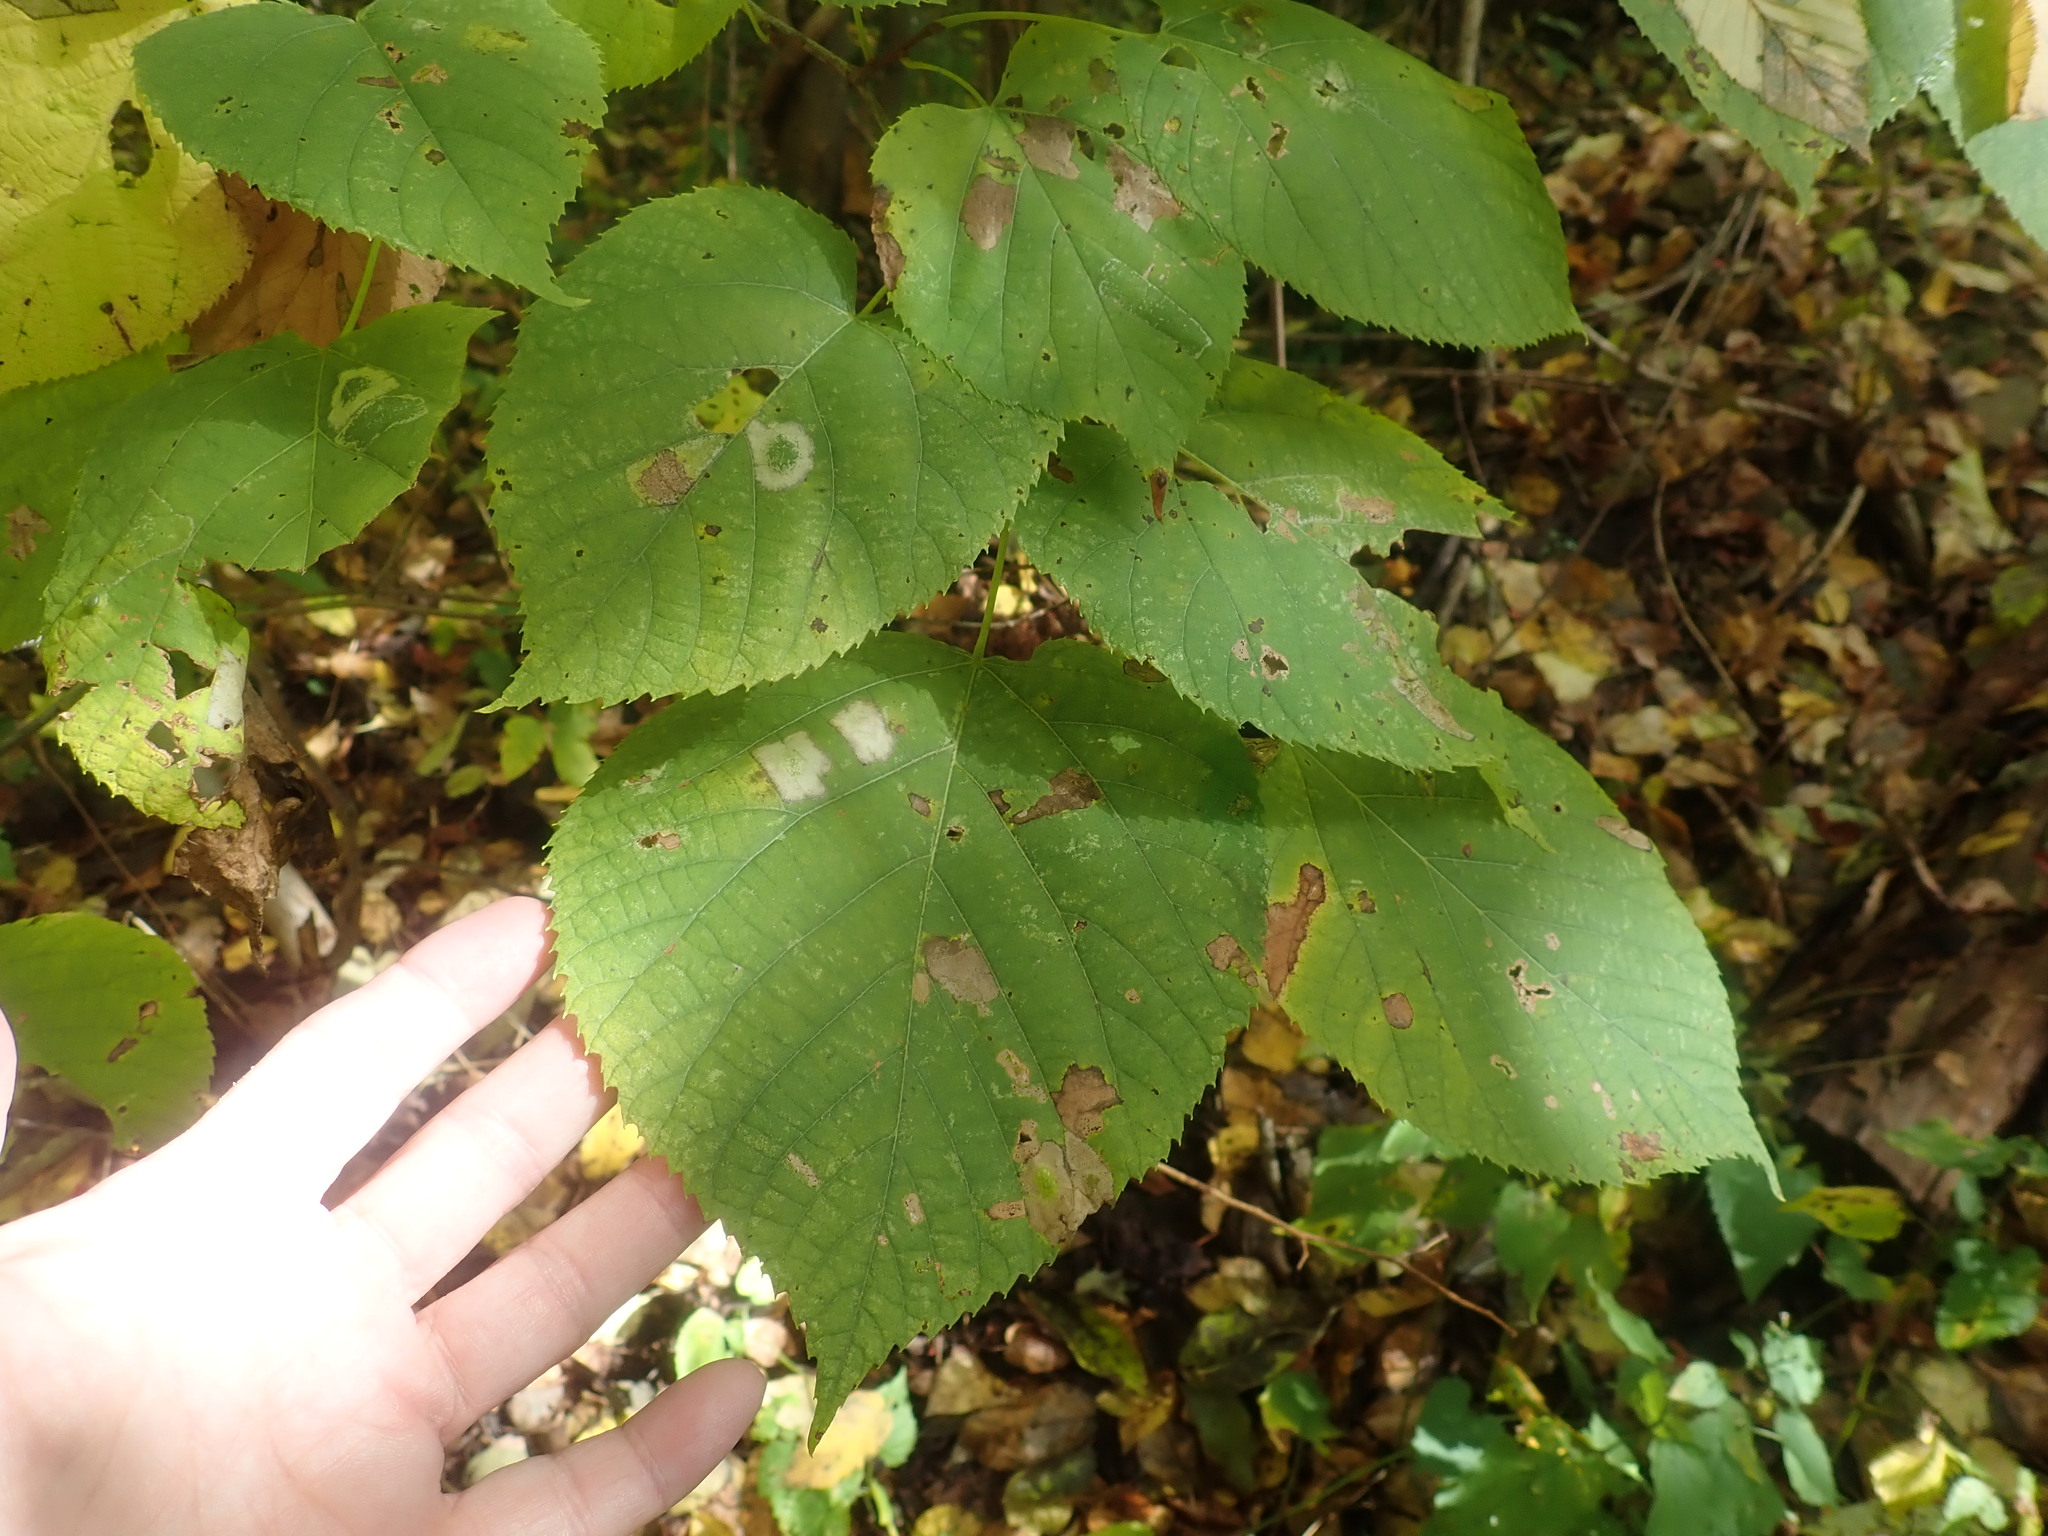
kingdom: Plantae
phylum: Tracheophyta
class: Magnoliopsida
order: Malvales
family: Malvaceae
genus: Tilia
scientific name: Tilia americana
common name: Basswood
